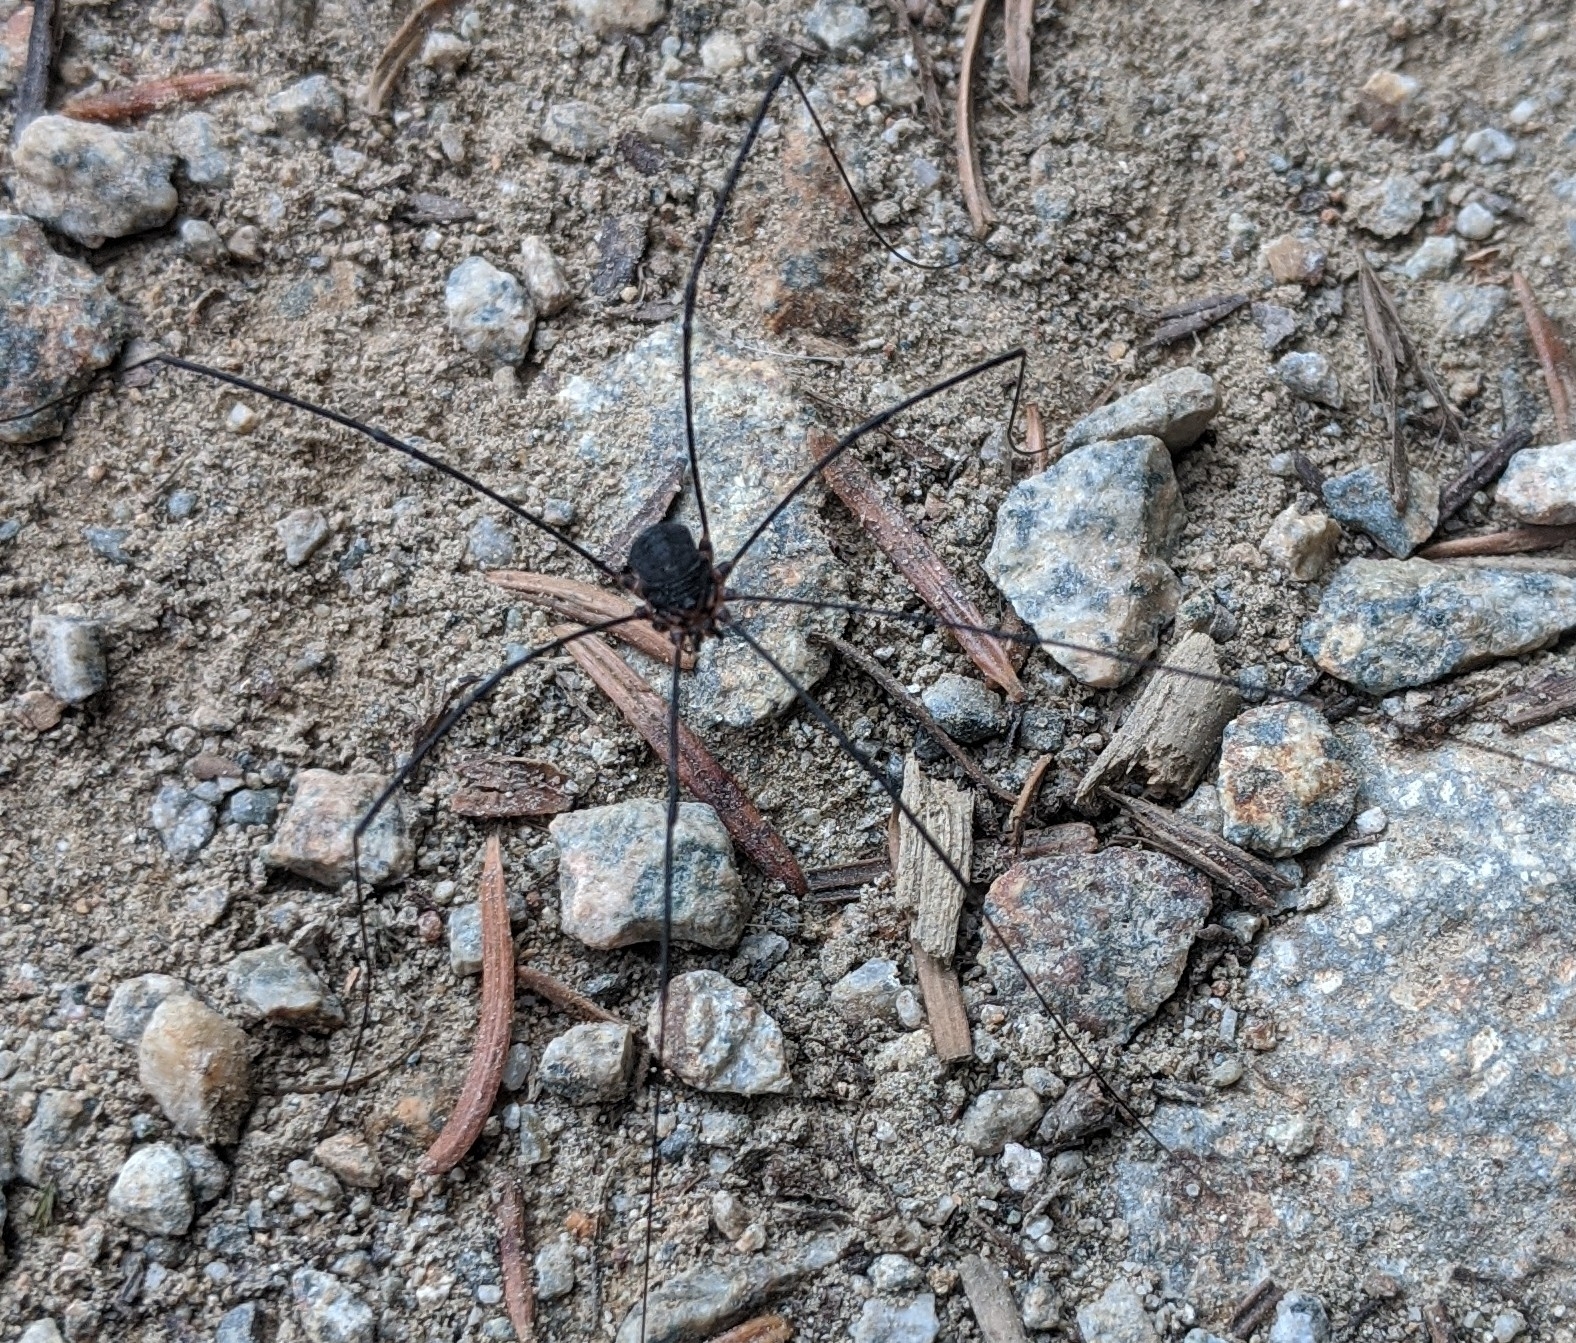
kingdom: Animalia
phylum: Arthropoda
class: Arachnida
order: Opiliones
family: Sclerosomatidae
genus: Nelima
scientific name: Nelima paessleri
